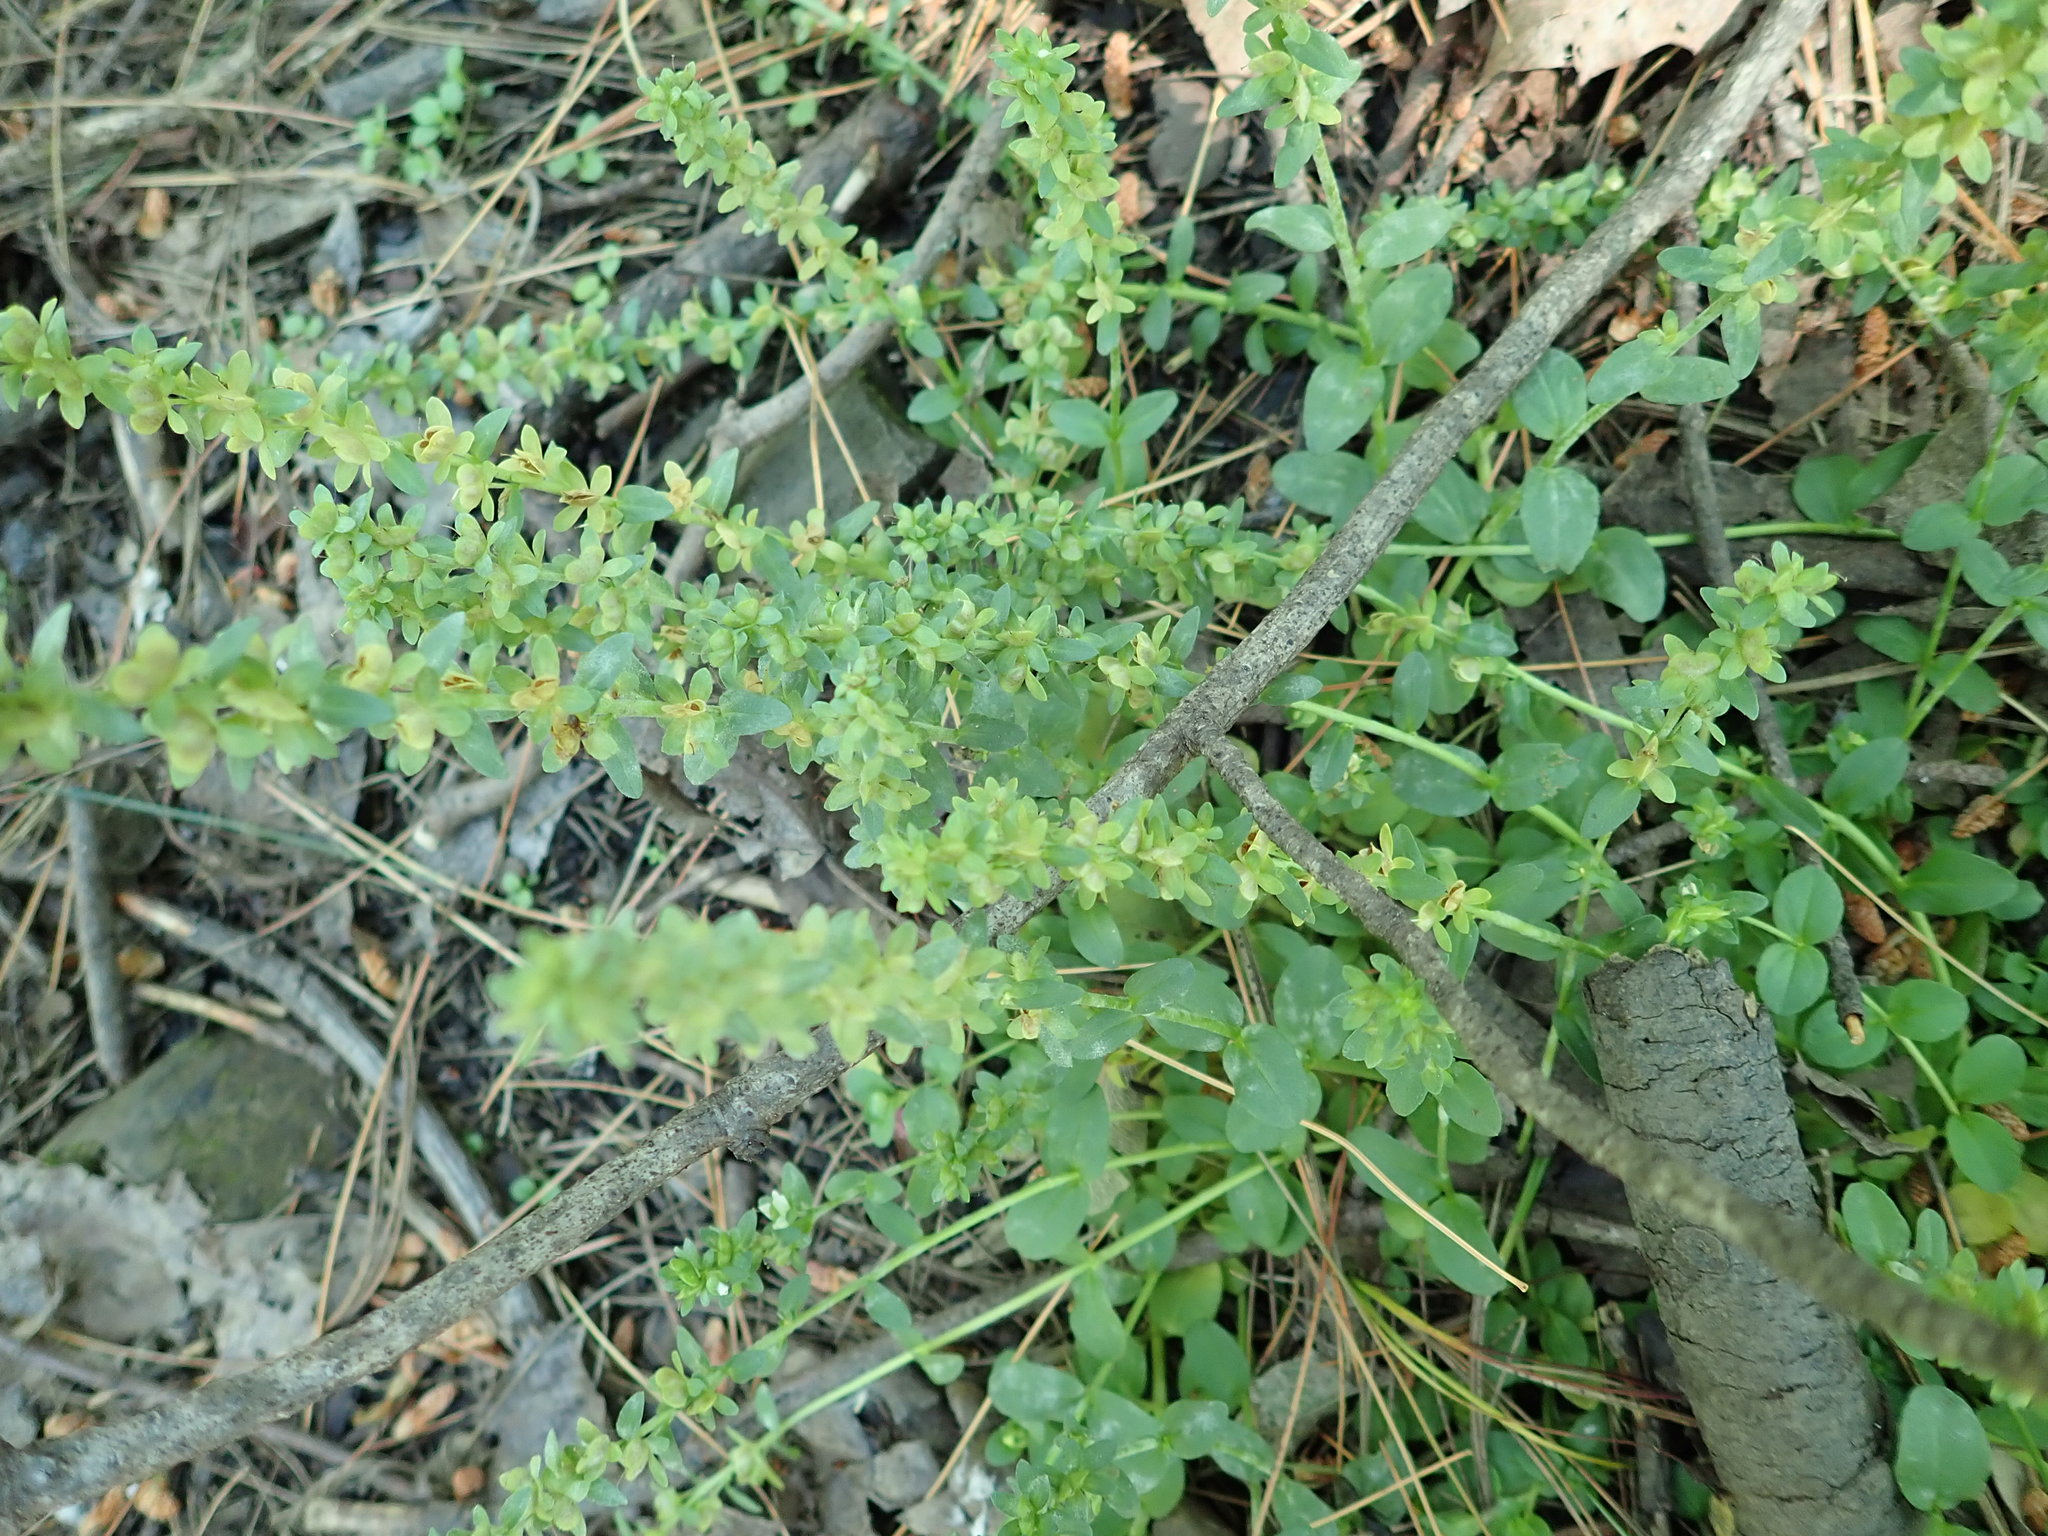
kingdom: Plantae
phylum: Tracheophyta
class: Magnoliopsida
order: Lamiales
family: Plantaginaceae
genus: Veronica
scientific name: Veronica serpyllifolia
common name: Thyme-leaved speedwell
